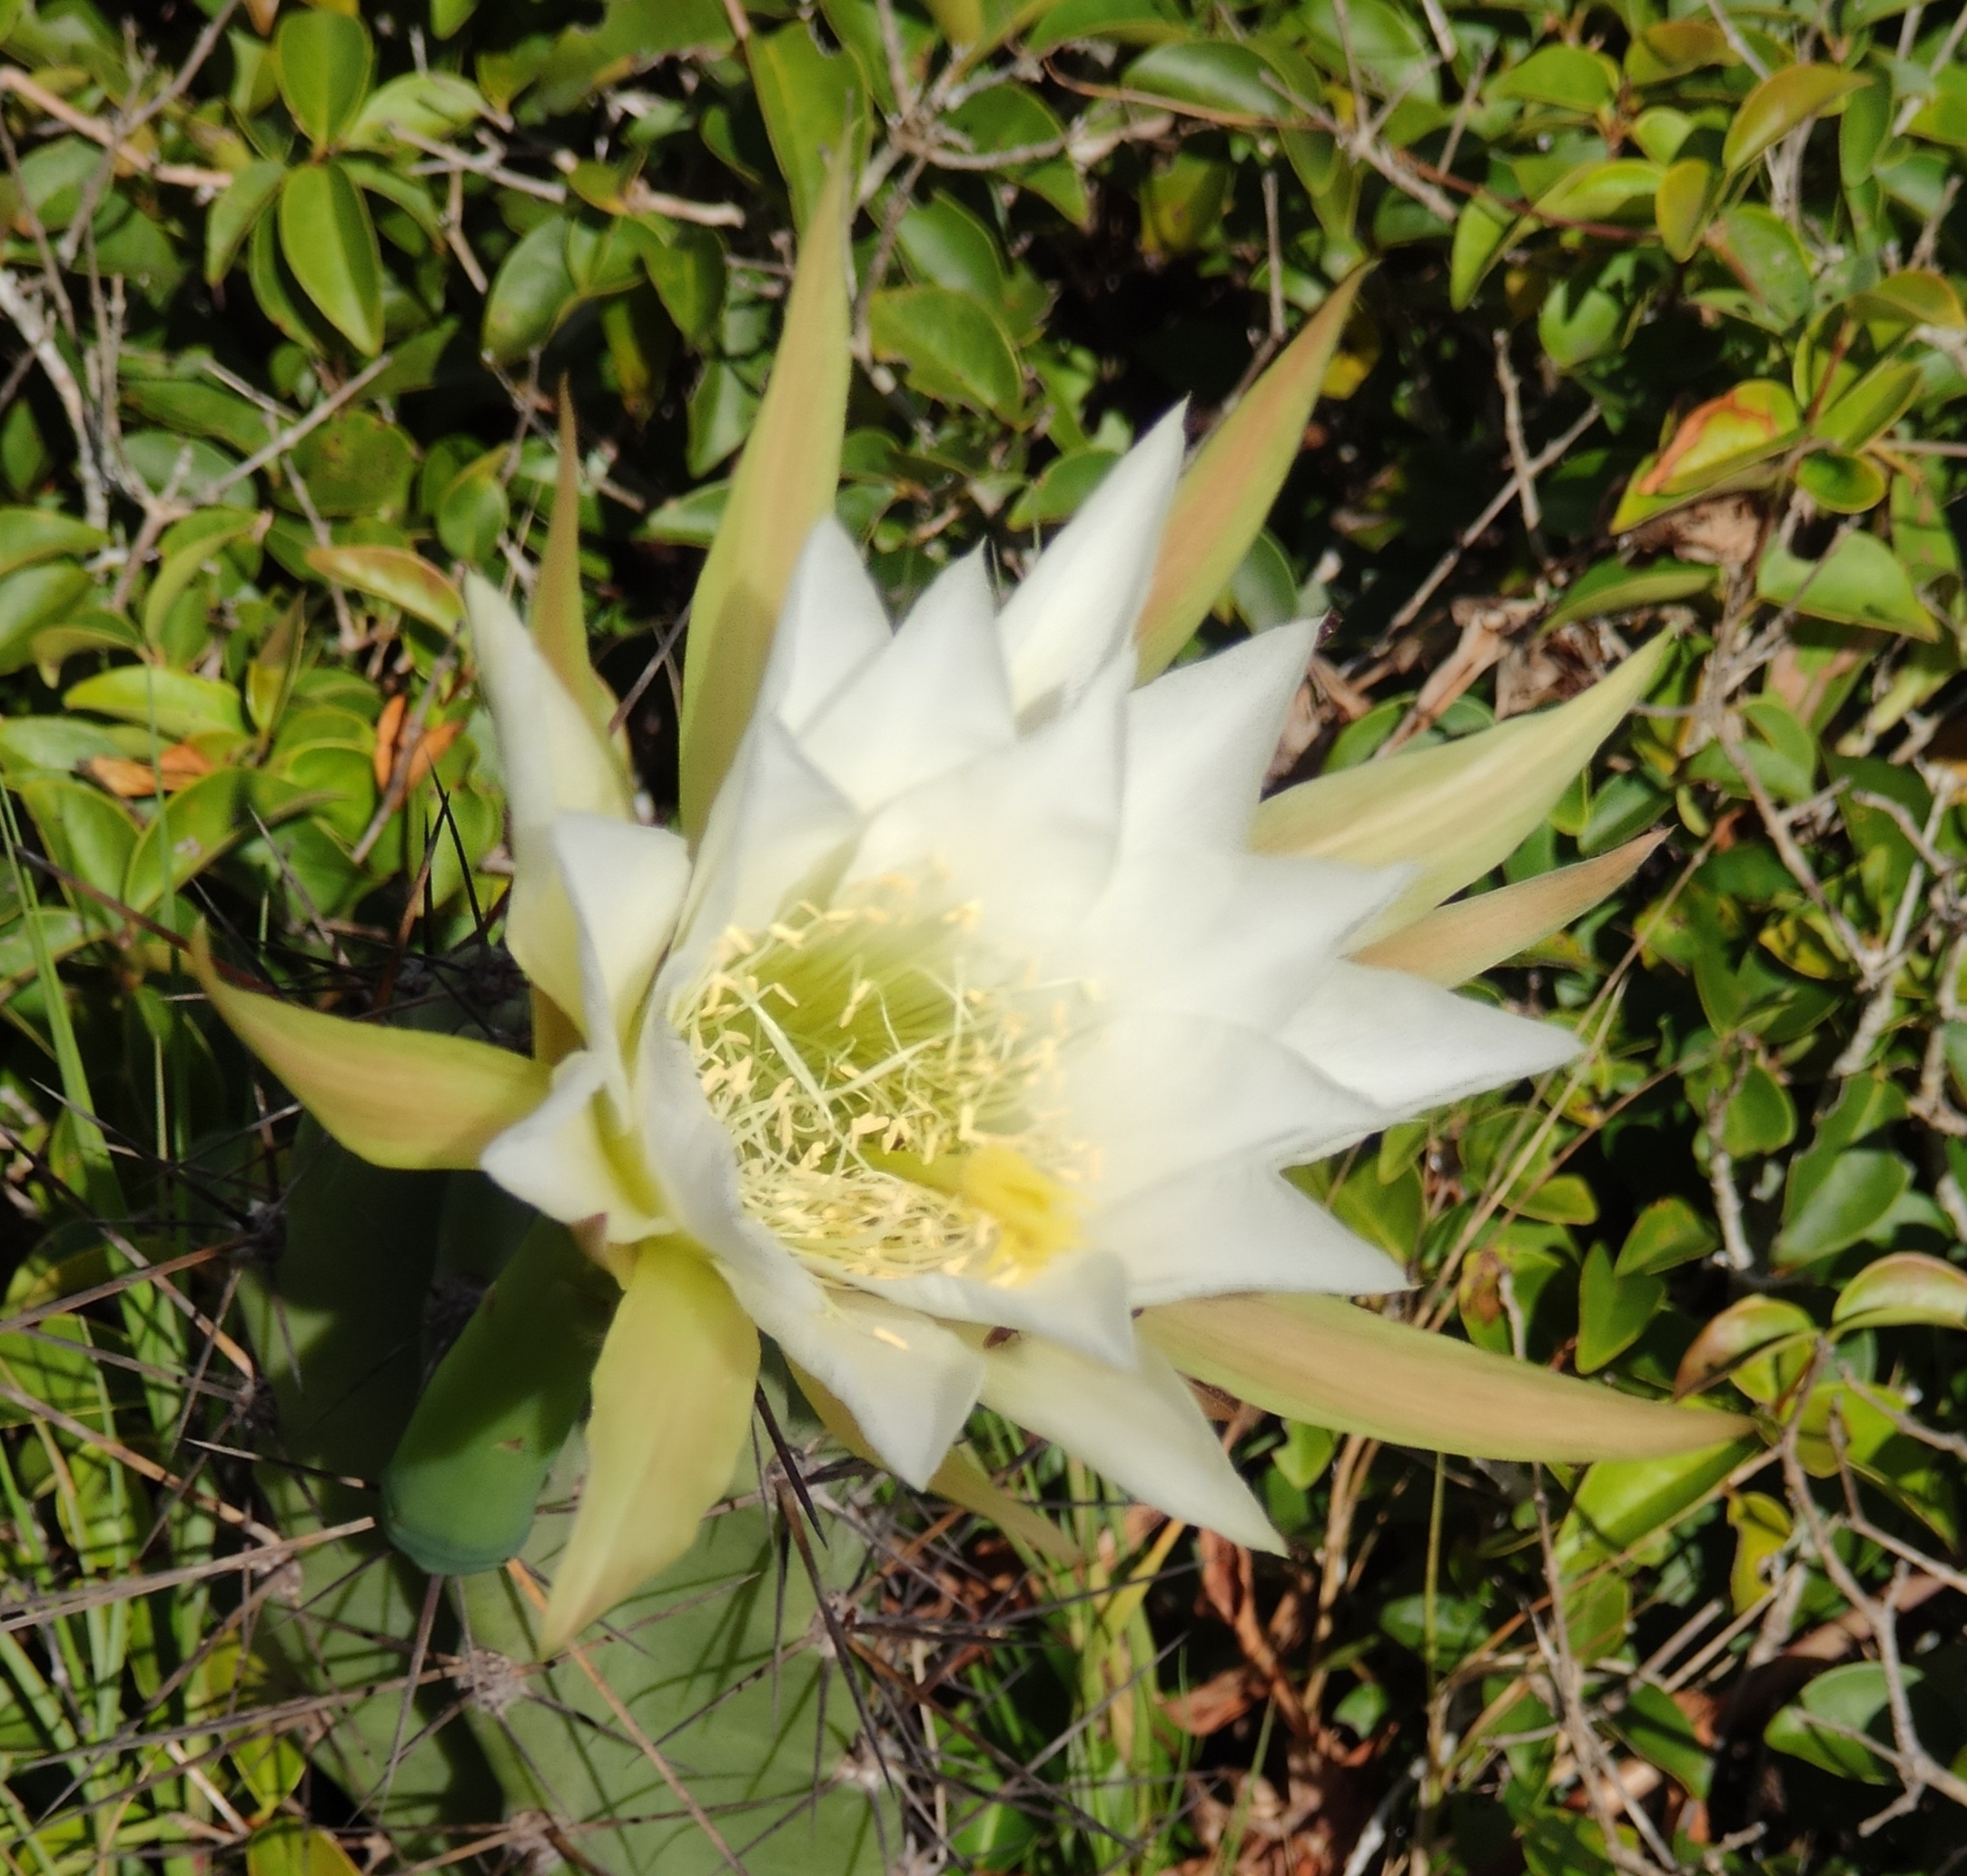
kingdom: Plantae
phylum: Tracheophyta
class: Magnoliopsida
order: Caryophyllales
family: Cactaceae
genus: Cereus
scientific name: Cereus fernambucensis
